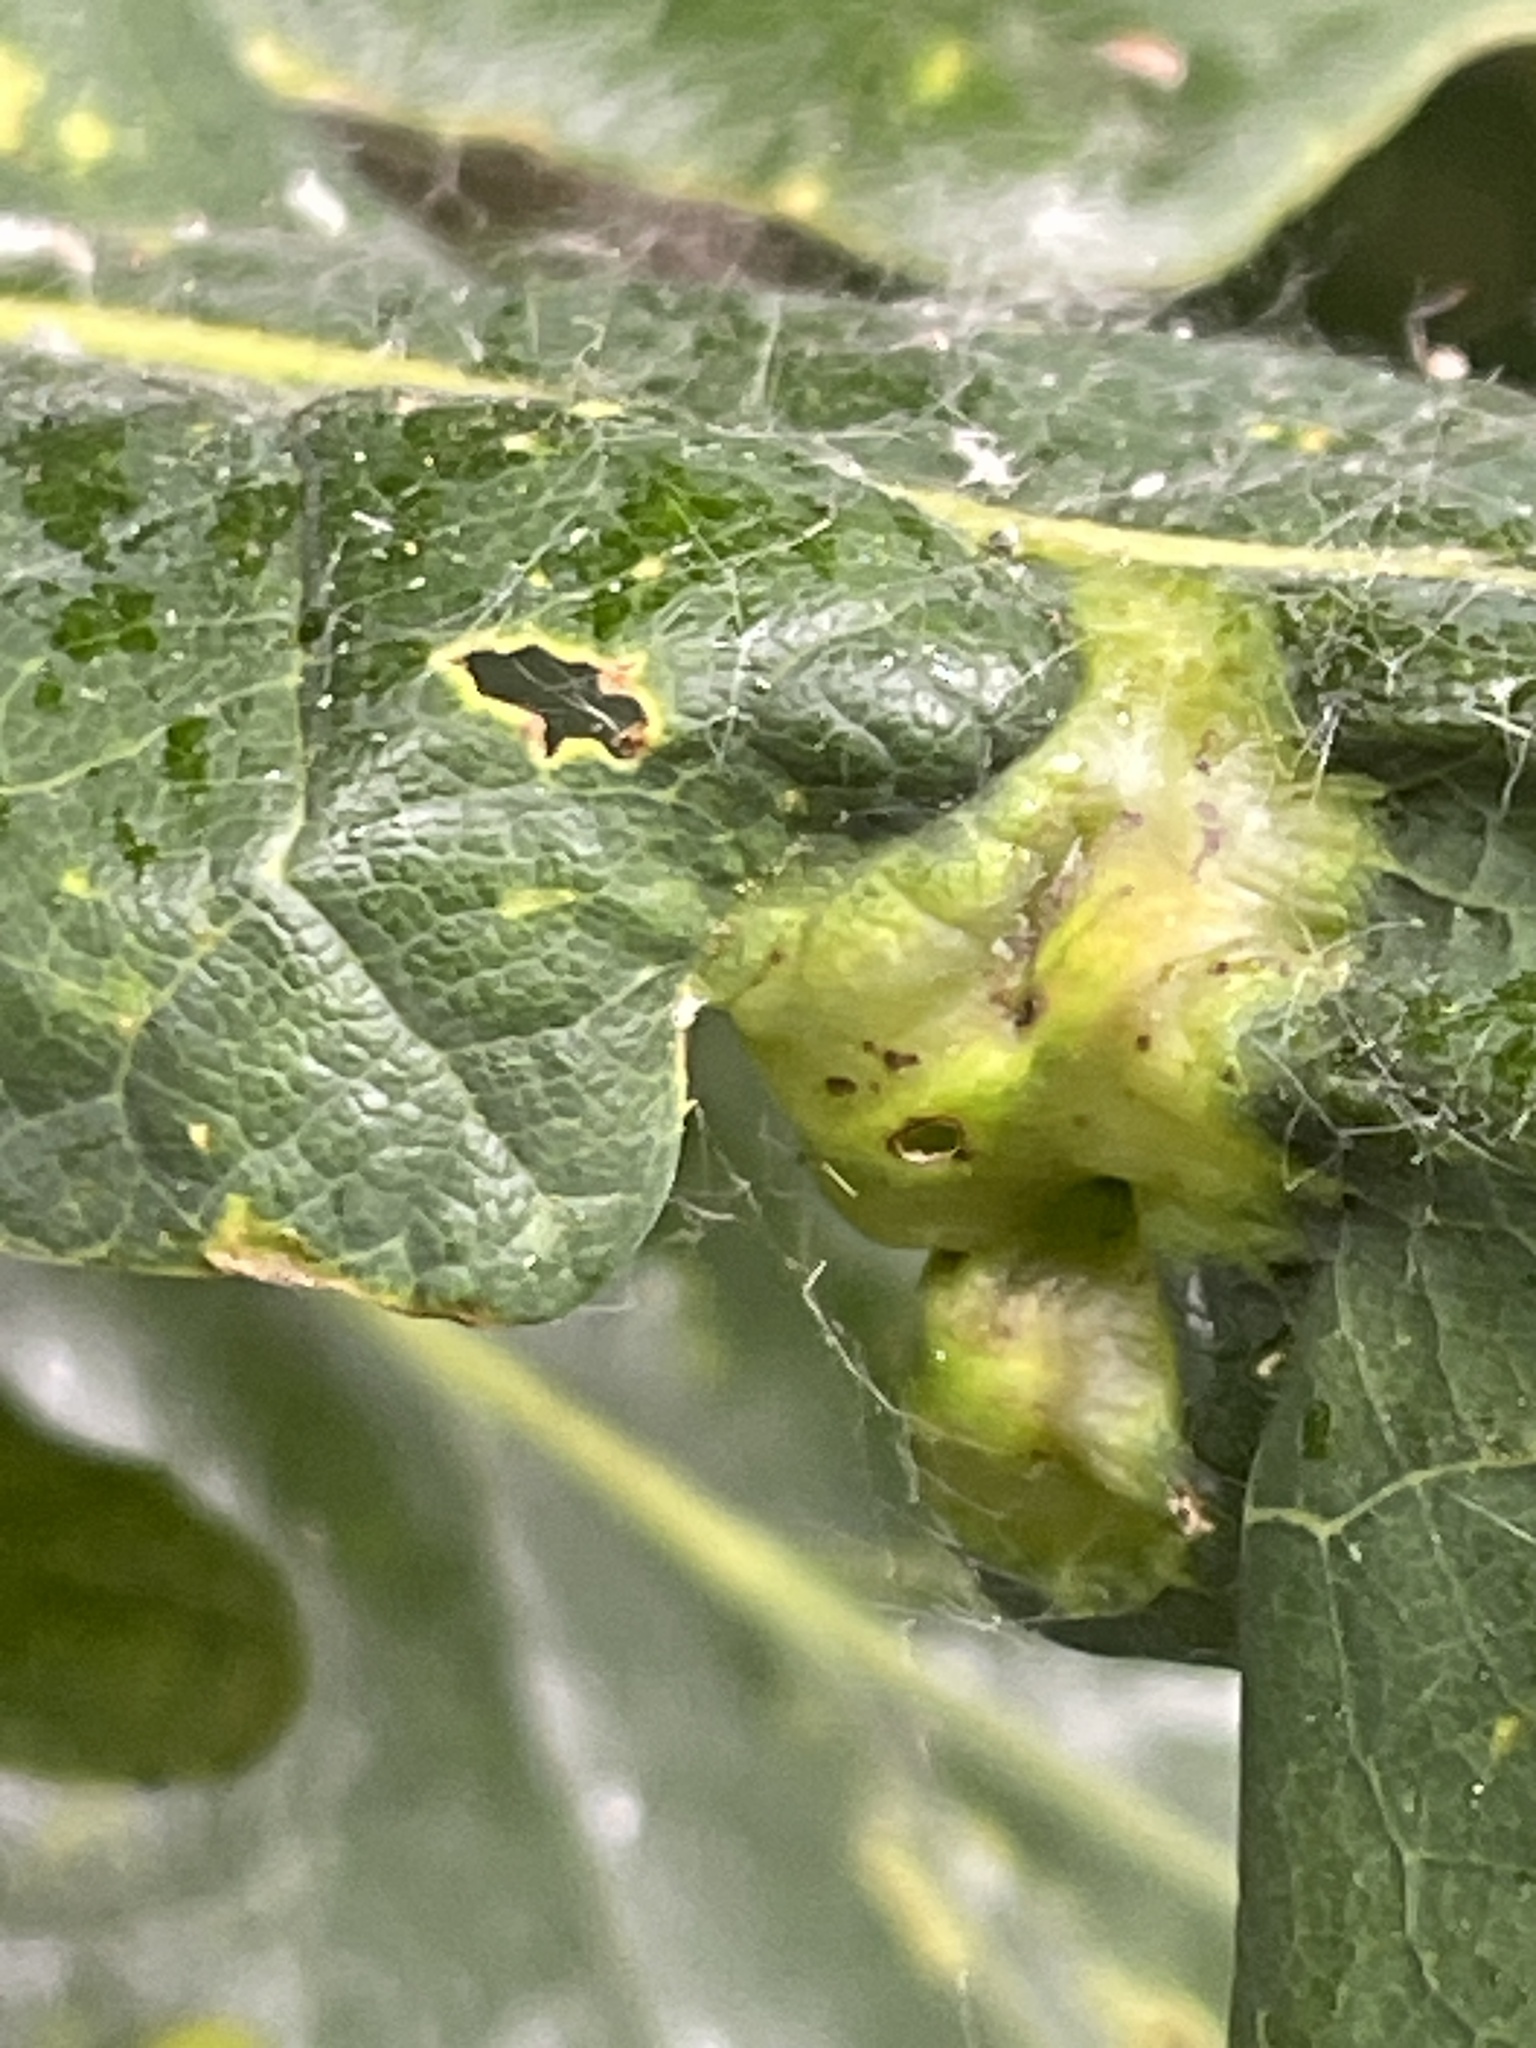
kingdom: Animalia
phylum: Arthropoda
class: Insecta
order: Hymenoptera
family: Cynipidae
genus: Andricus
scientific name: Andricus curvator
